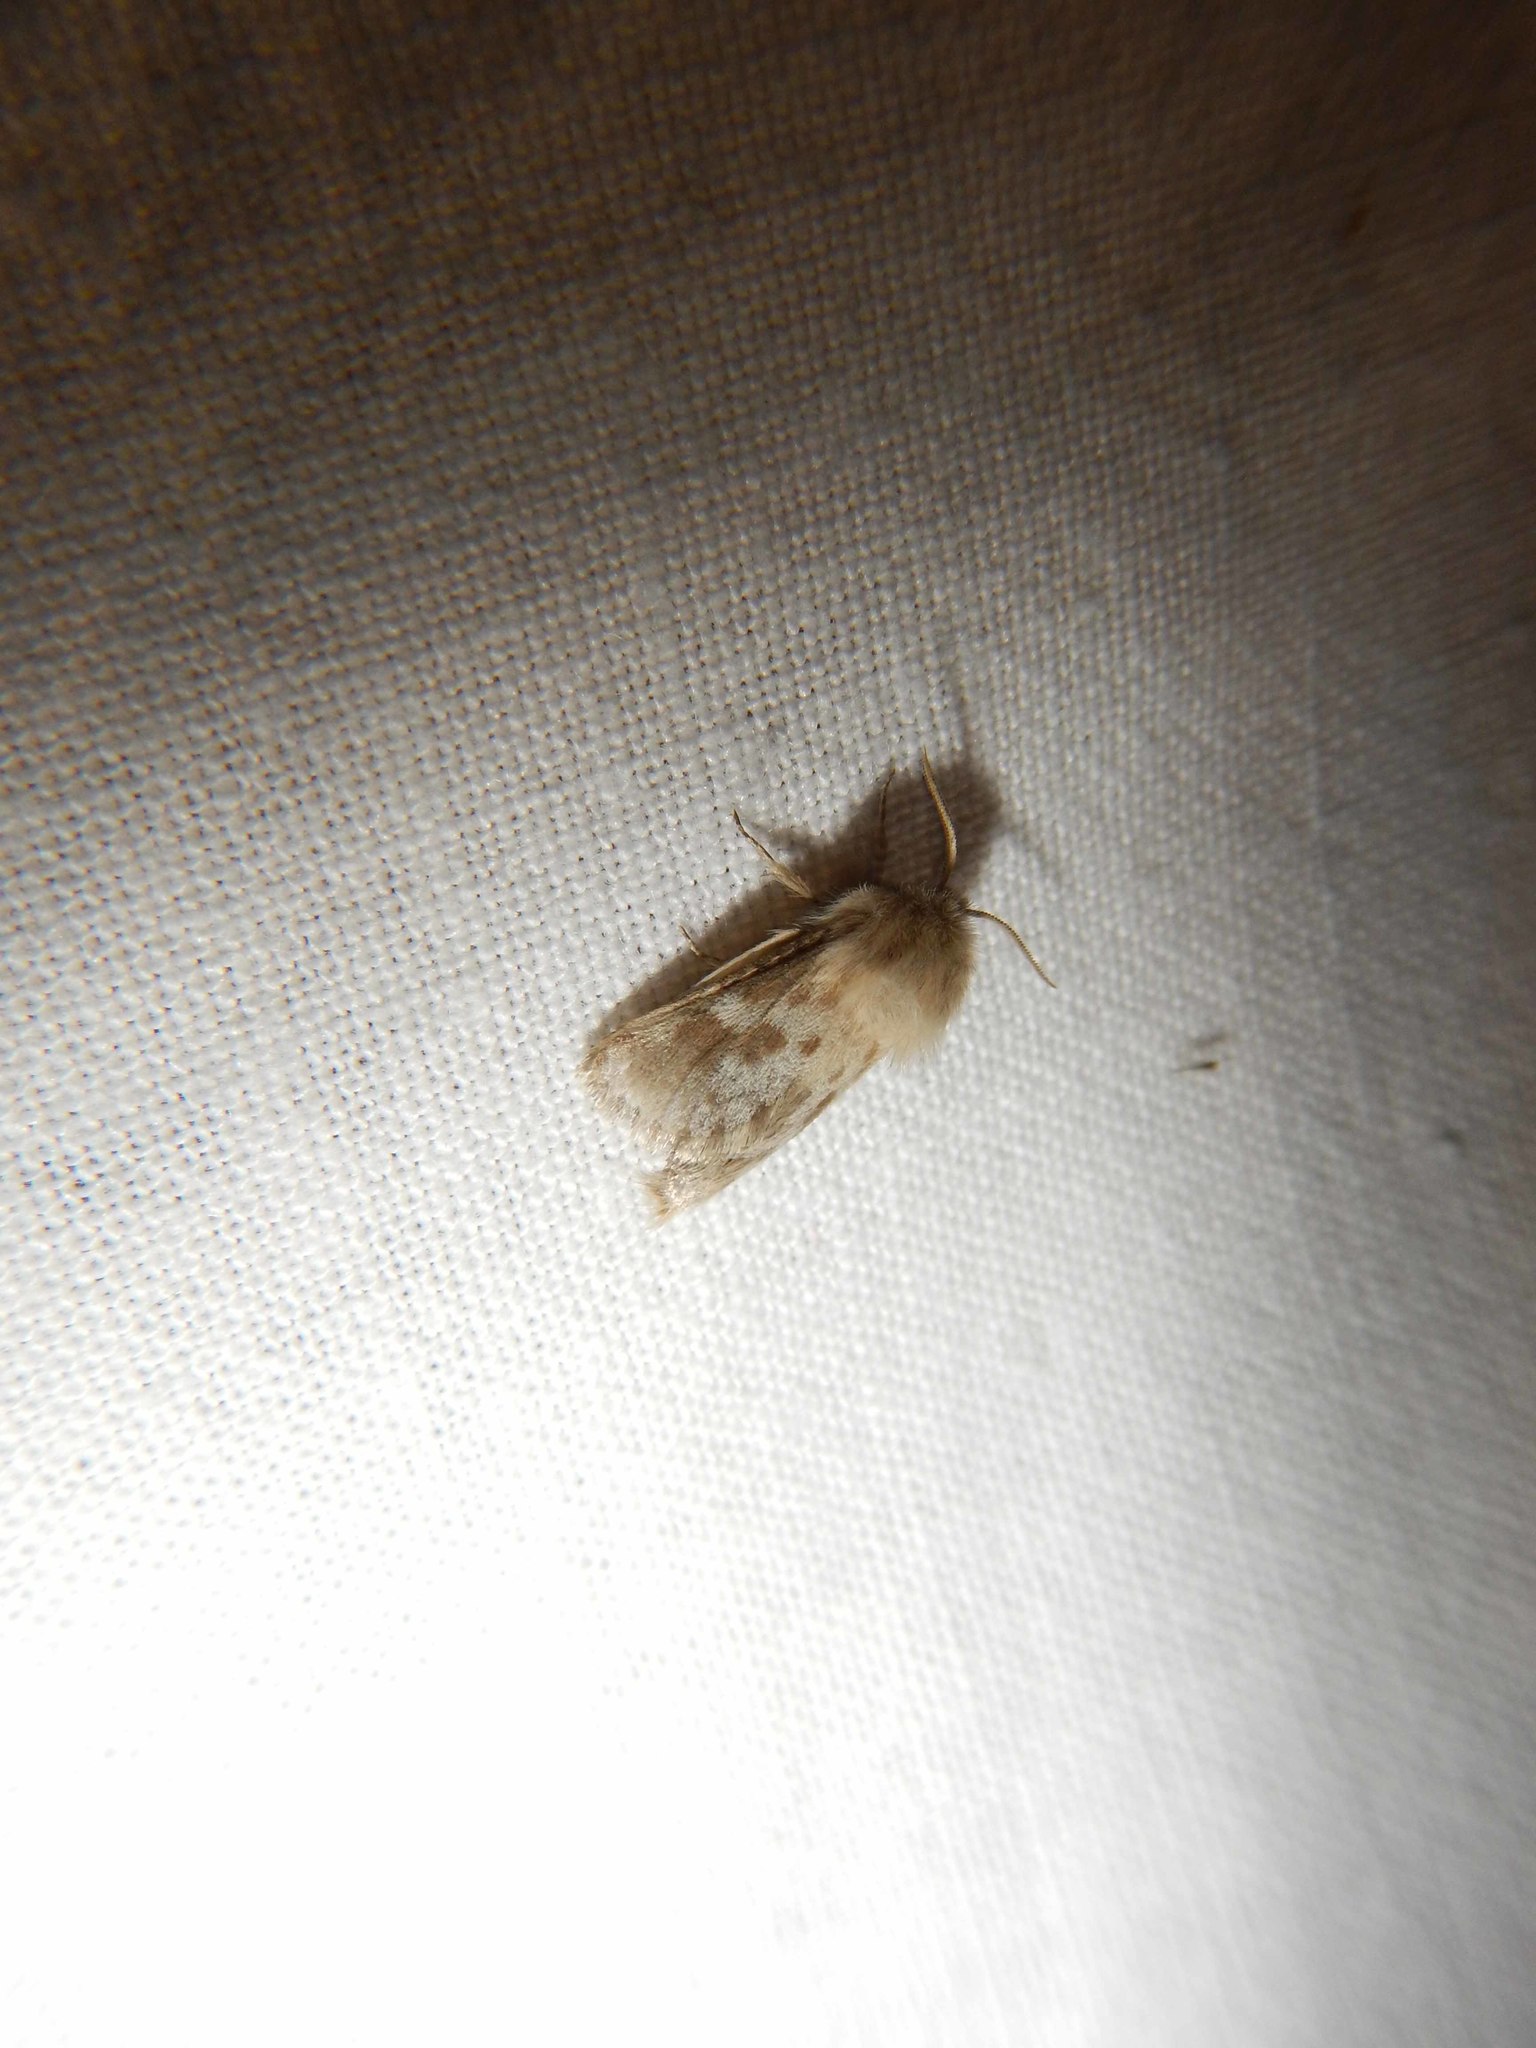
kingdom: Animalia
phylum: Arthropoda
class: Insecta
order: Lepidoptera
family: Cossidae
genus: Dyspessa
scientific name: Dyspessa ulula
